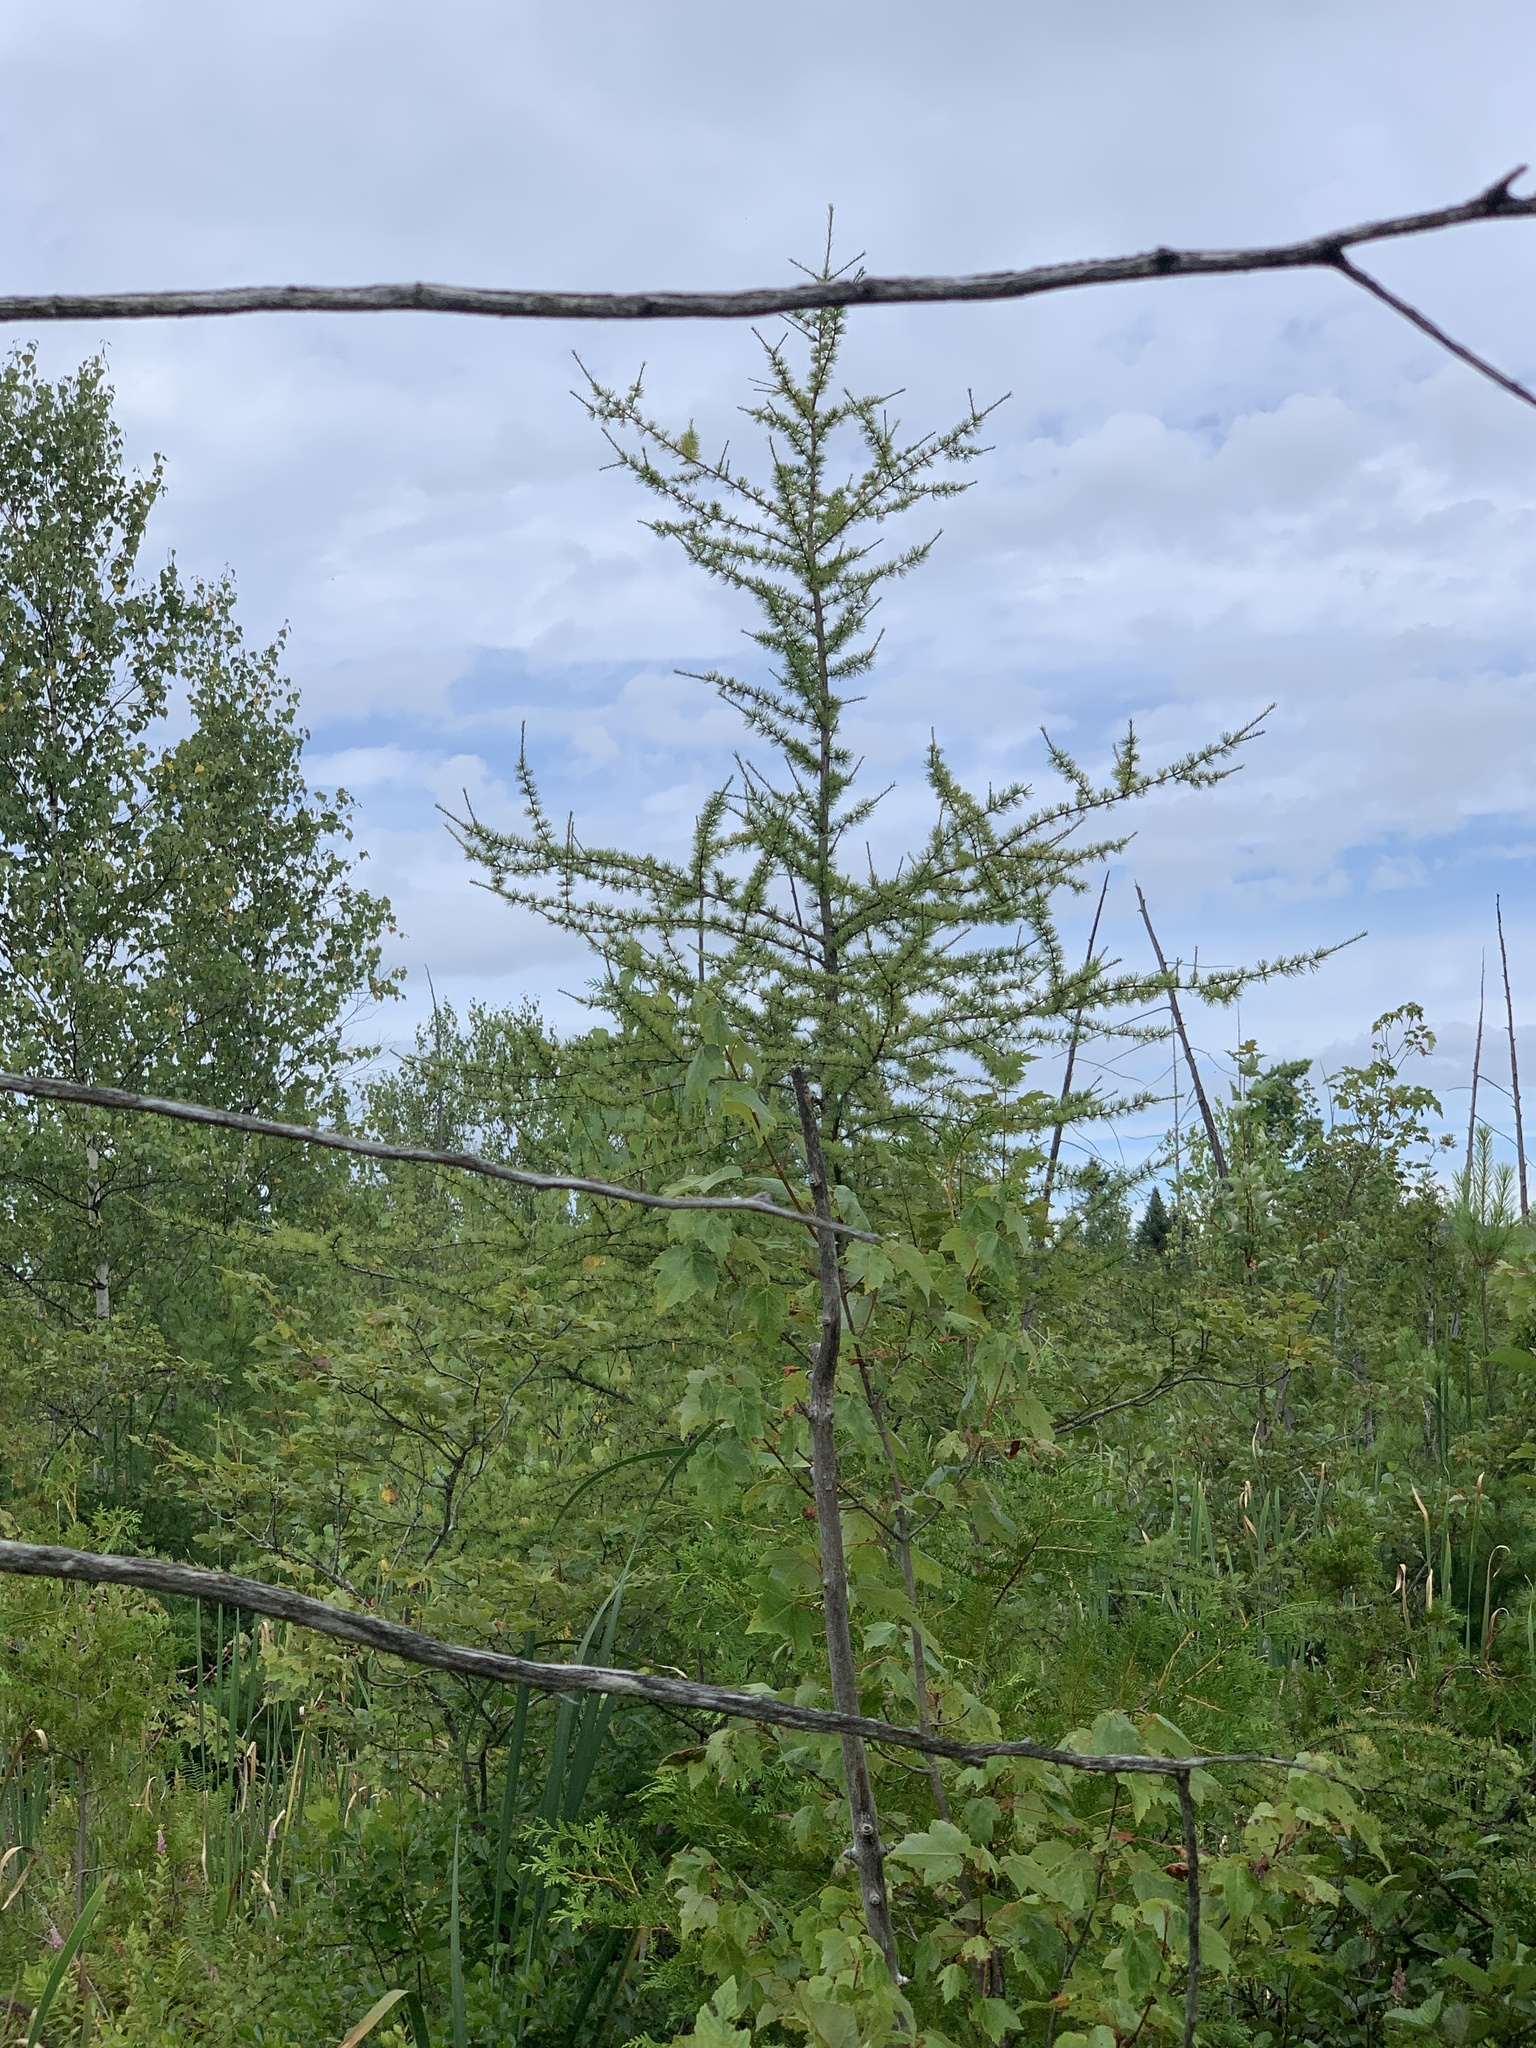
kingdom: Plantae
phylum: Tracheophyta
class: Pinopsida
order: Pinales
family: Pinaceae
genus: Larix
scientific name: Larix laricina
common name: American larch
